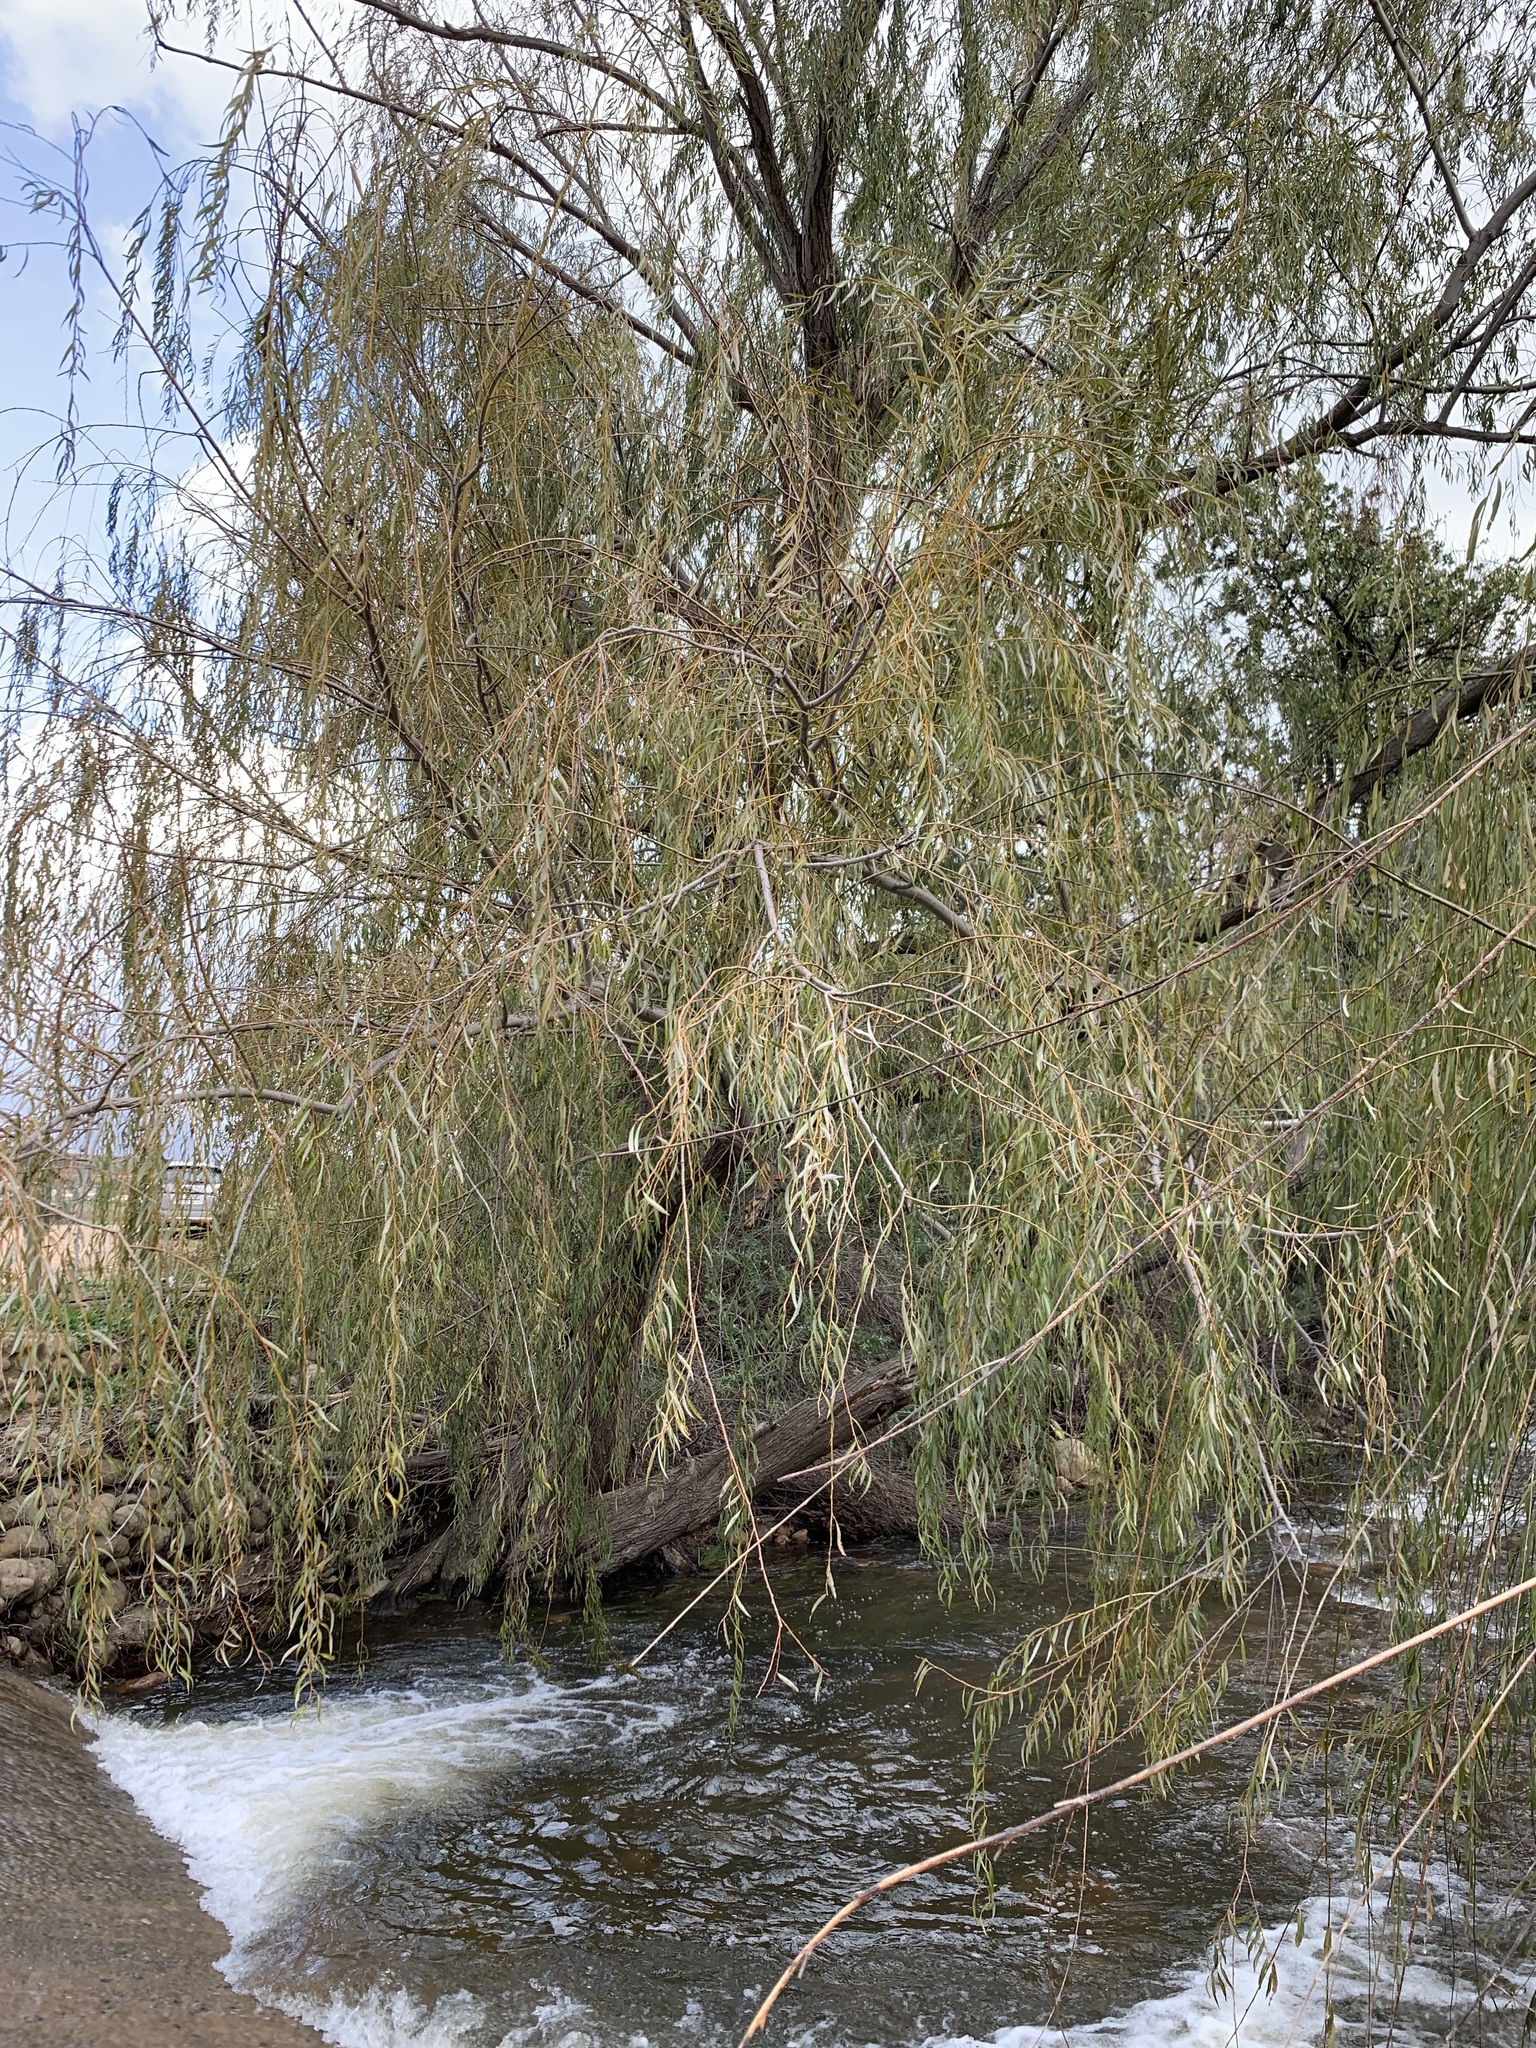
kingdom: Plantae
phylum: Tracheophyta
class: Magnoliopsida
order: Malpighiales
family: Salicaceae
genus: Salix
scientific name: Salix babylonica
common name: Weeping willow
